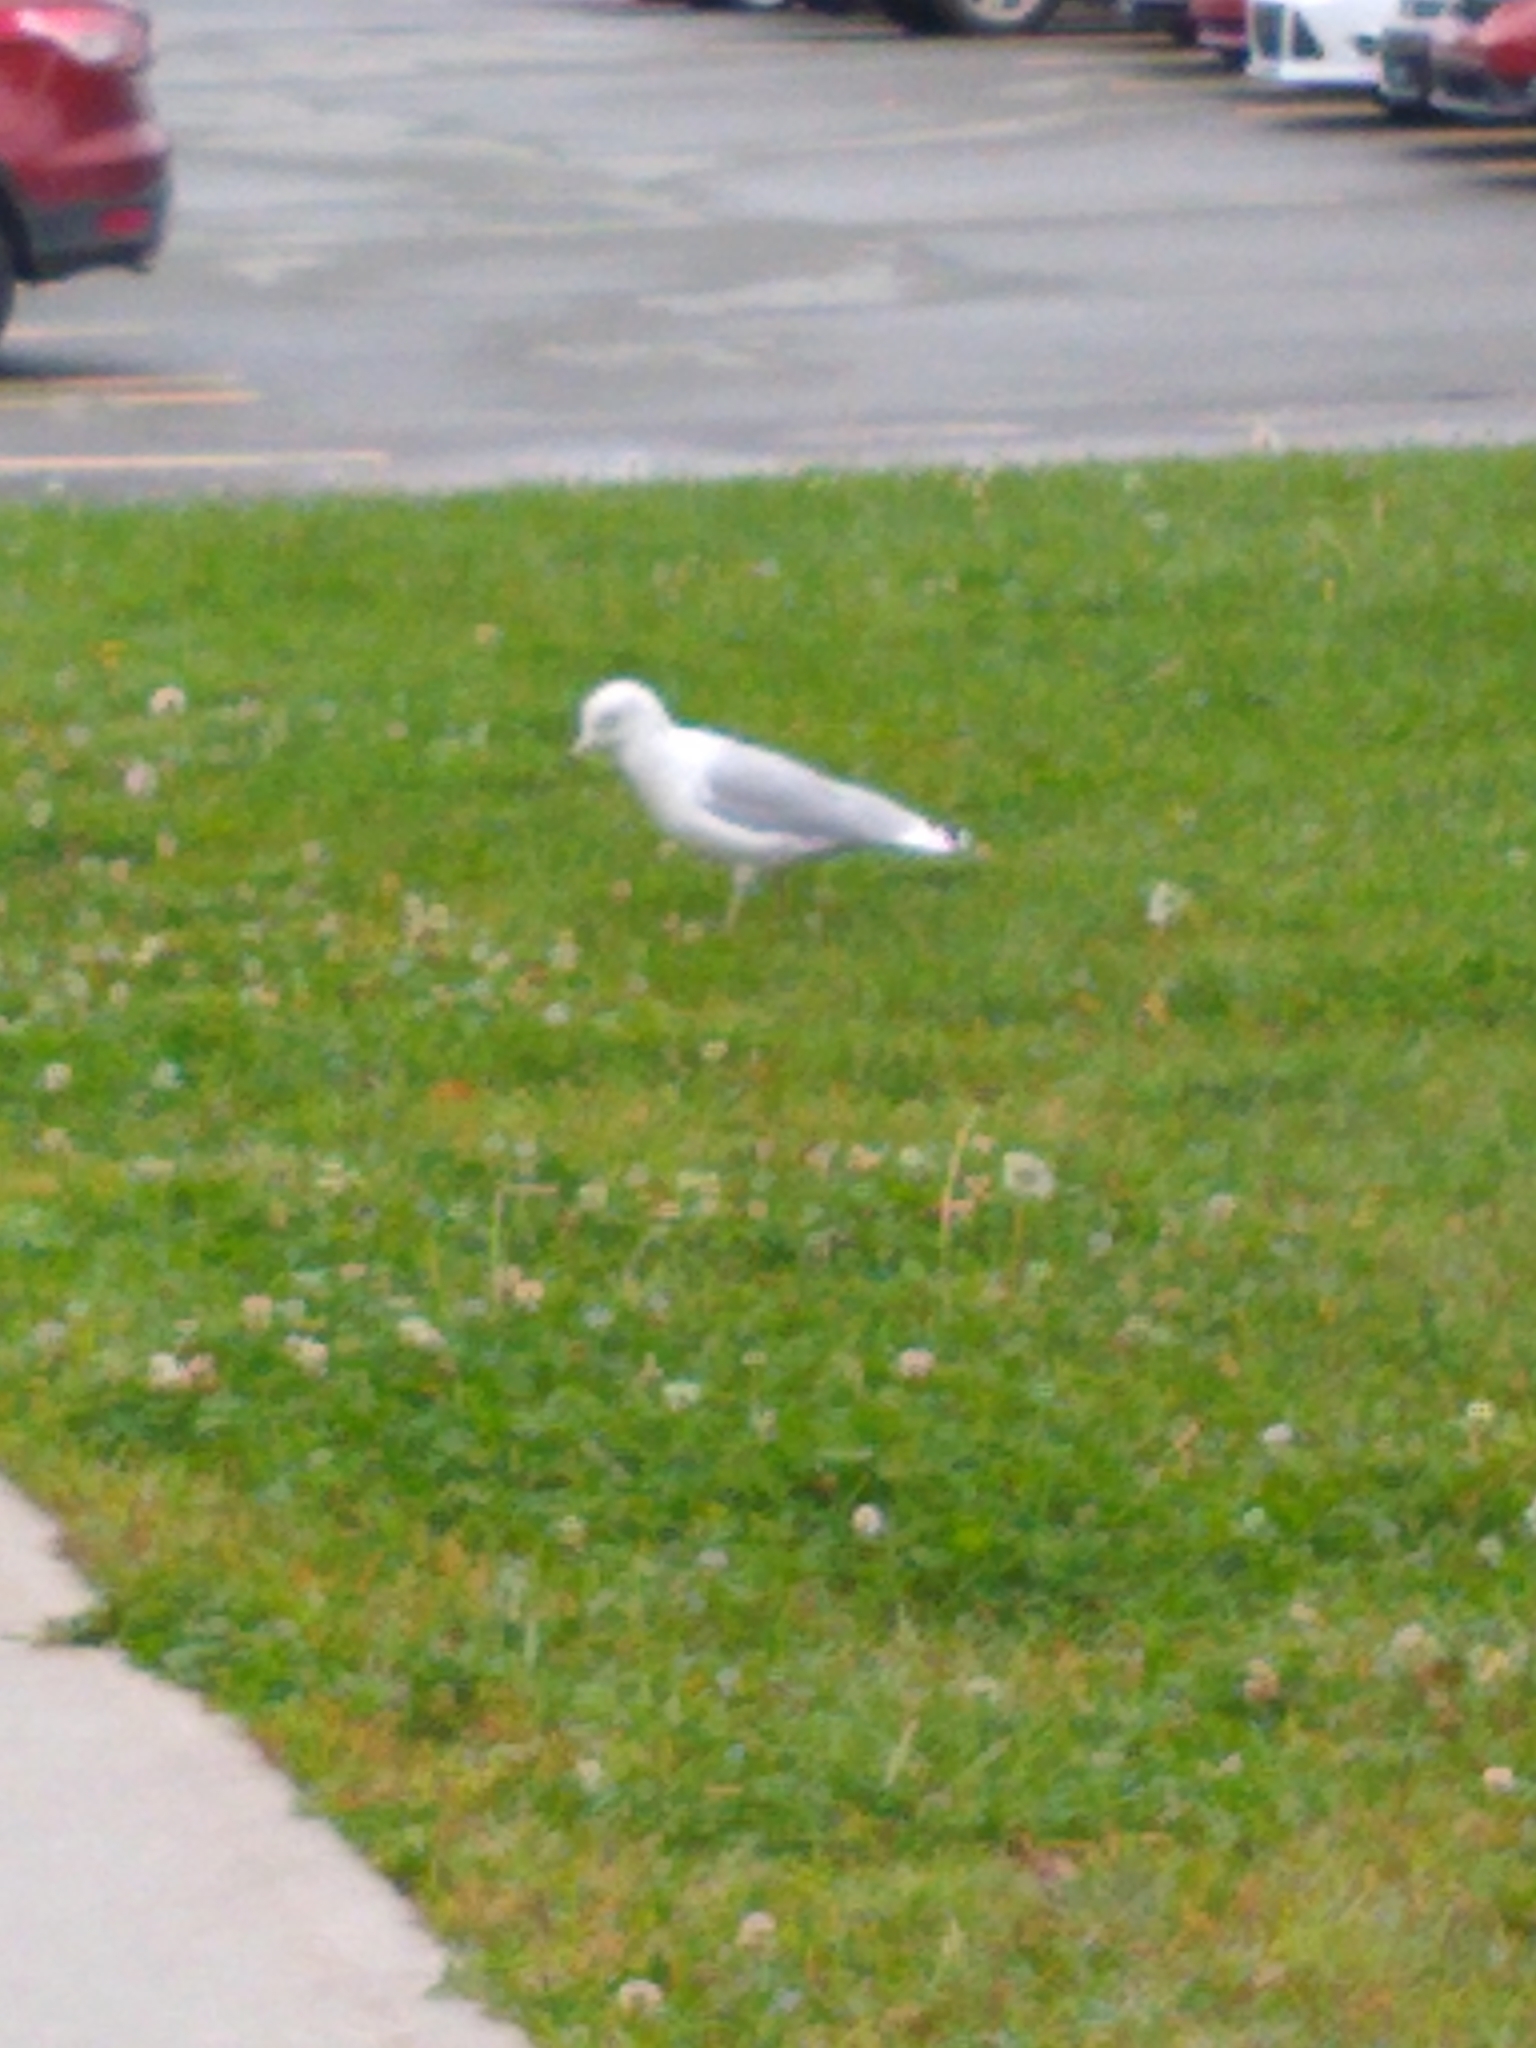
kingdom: Animalia
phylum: Chordata
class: Aves
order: Charadriiformes
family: Laridae
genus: Larus
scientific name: Larus delawarensis
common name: Ring-billed gull
